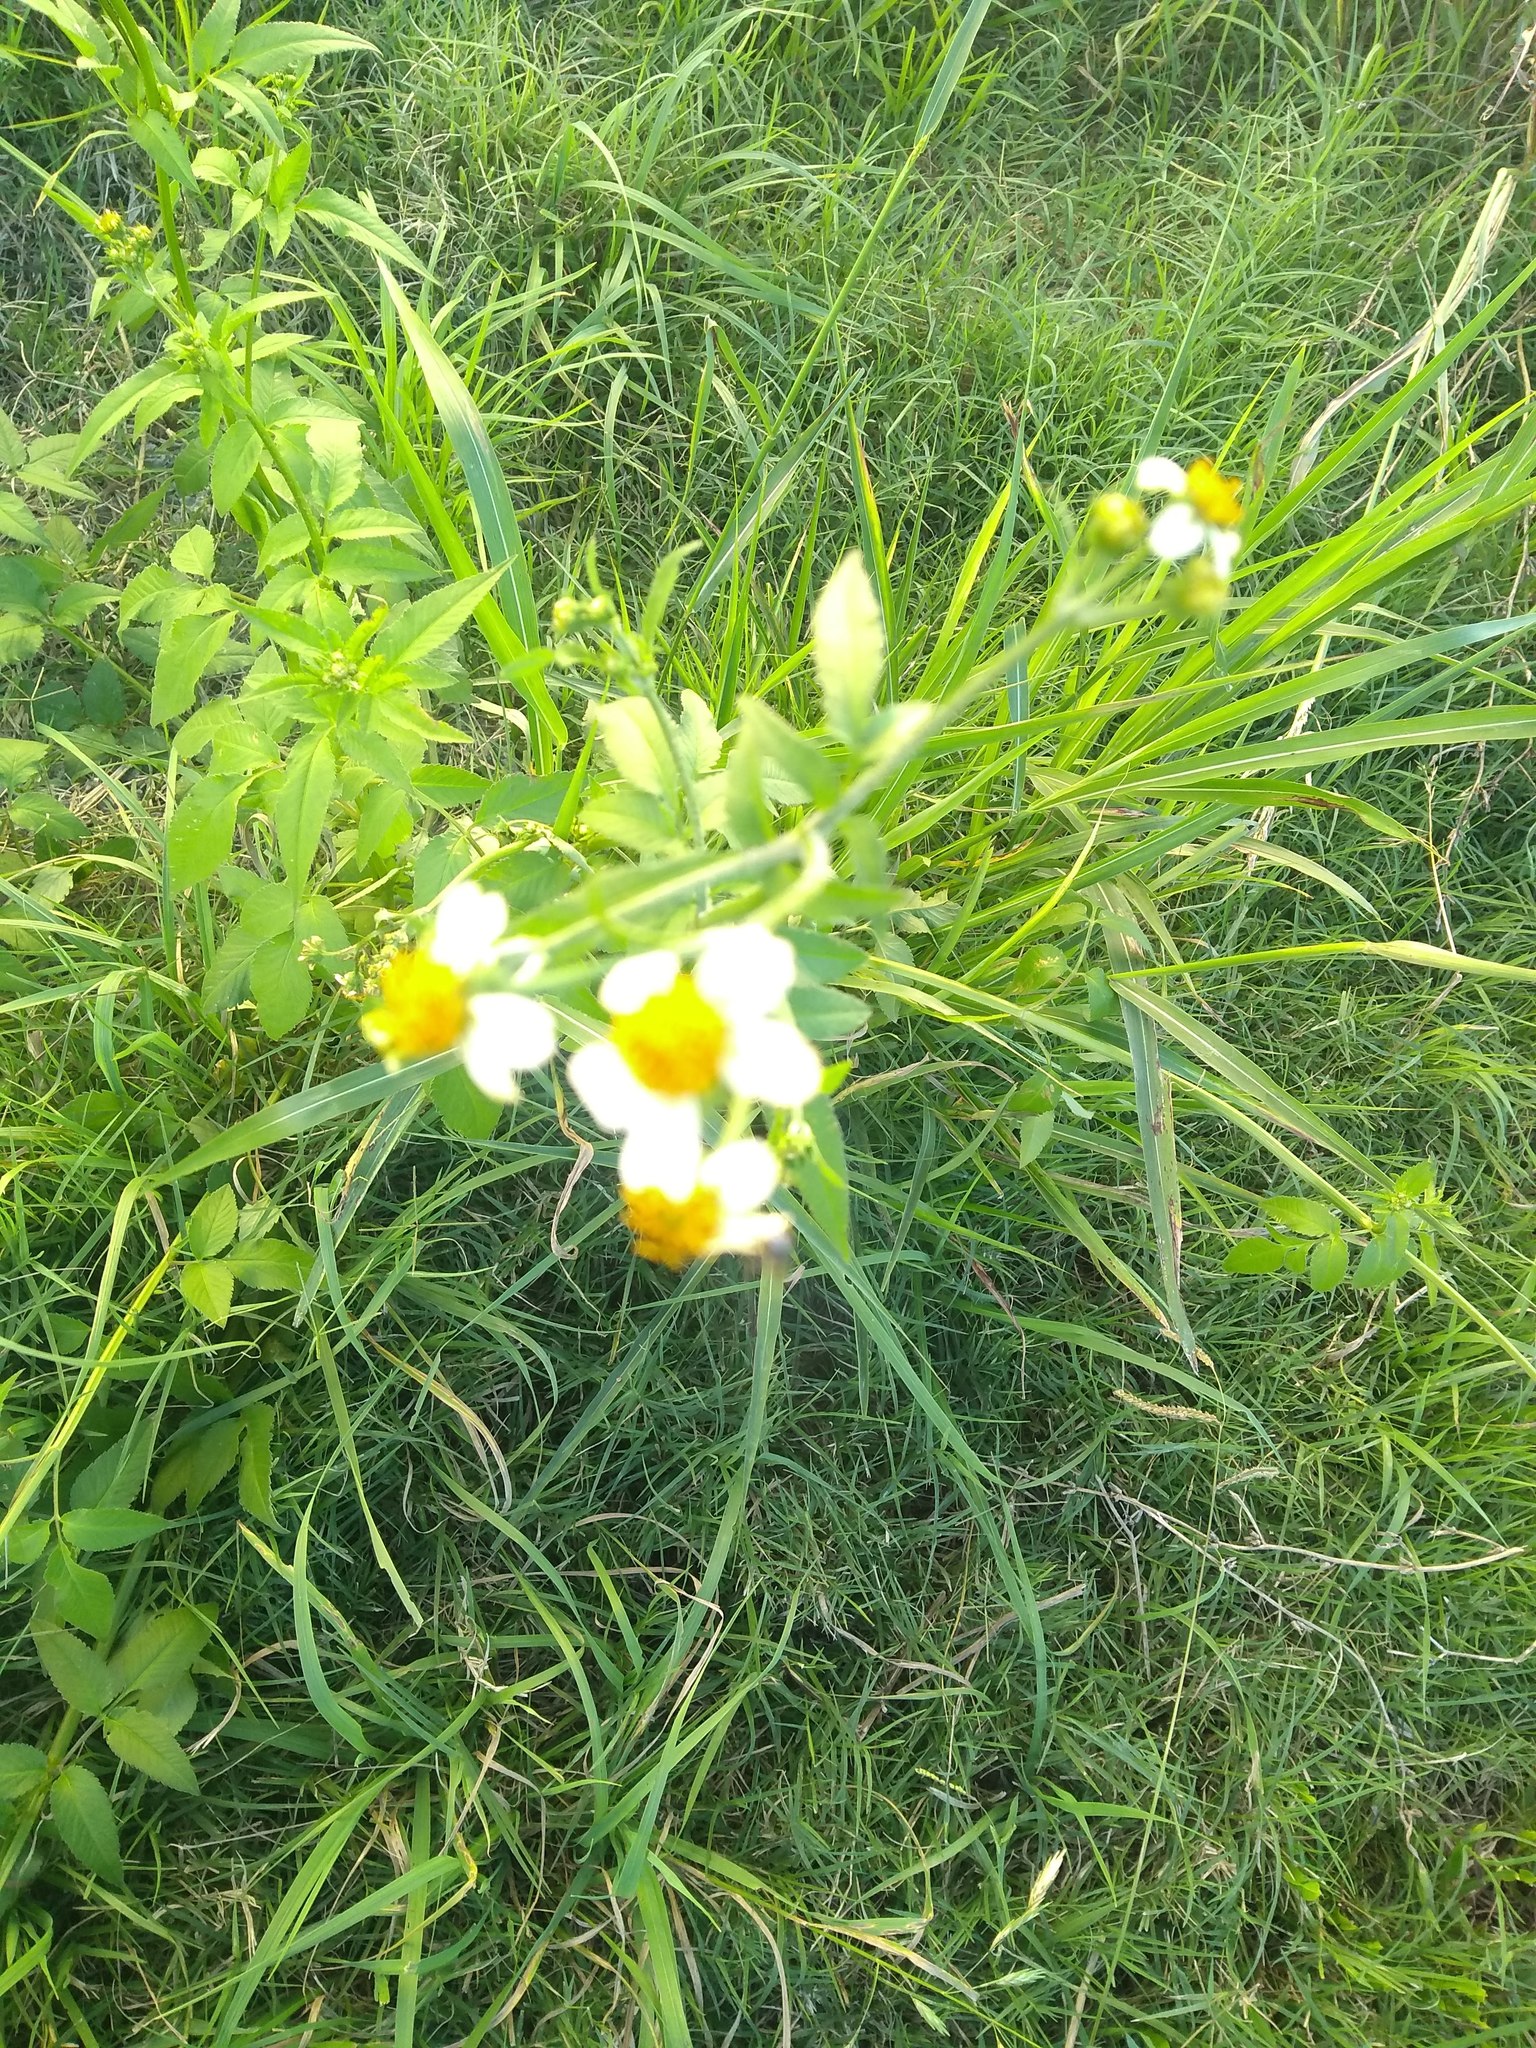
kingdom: Plantae
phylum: Tracheophyta
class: Magnoliopsida
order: Asterales
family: Asteraceae
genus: Bidens
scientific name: Bidens pilosa
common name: Black-jack
